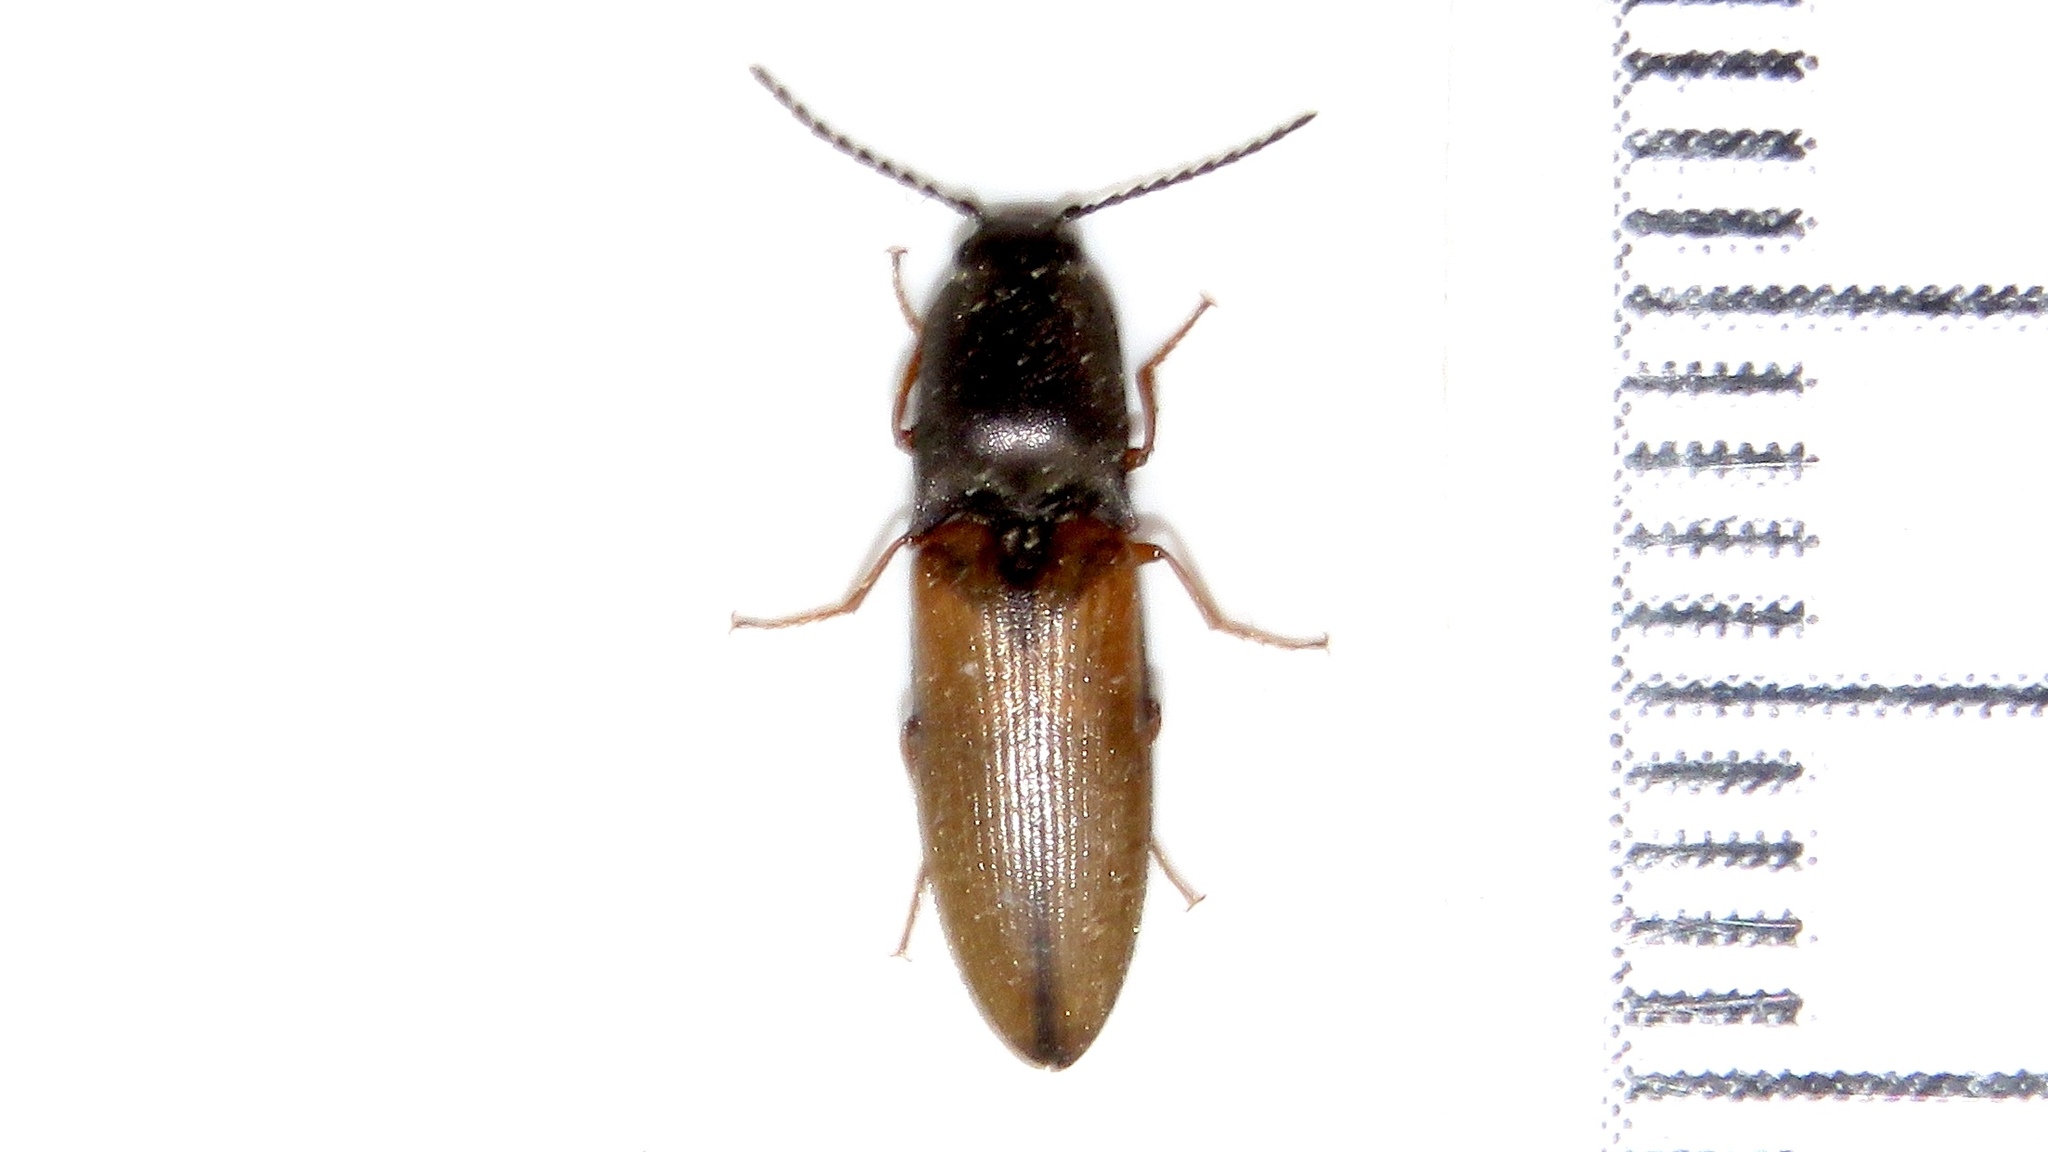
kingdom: Animalia
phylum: Arthropoda
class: Insecta
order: Coleoptera
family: Elateridae
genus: Corymbitodes
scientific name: Corymbitodes tarsalis
